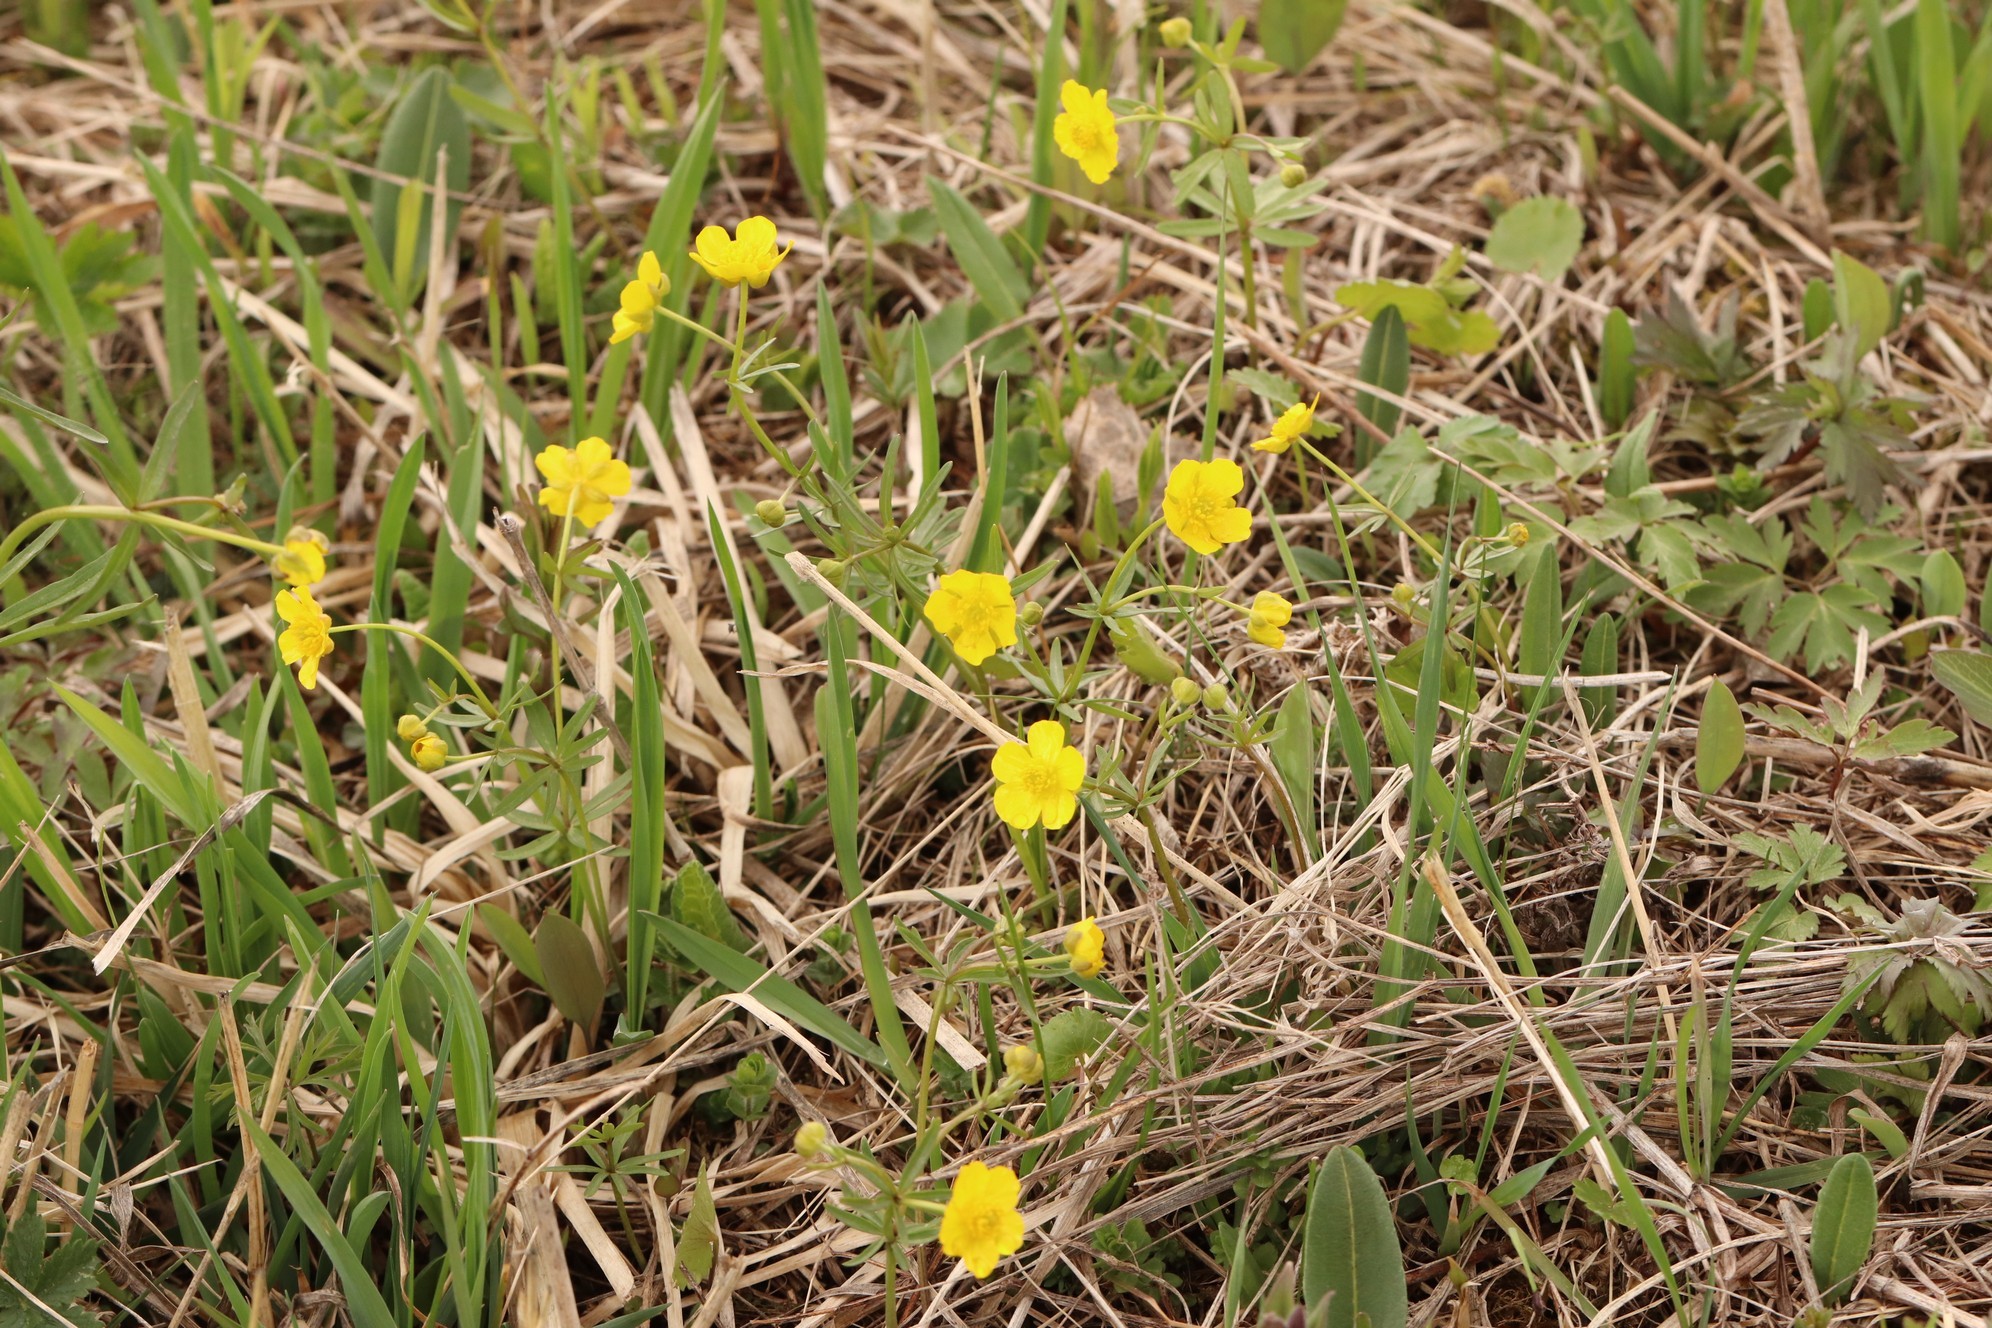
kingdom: Plantae
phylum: Tracheophyta
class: Magnoliopsida
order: Ranunculales
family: Ranunculaceae
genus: Ranunculus
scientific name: Ranunculus monophyllus
